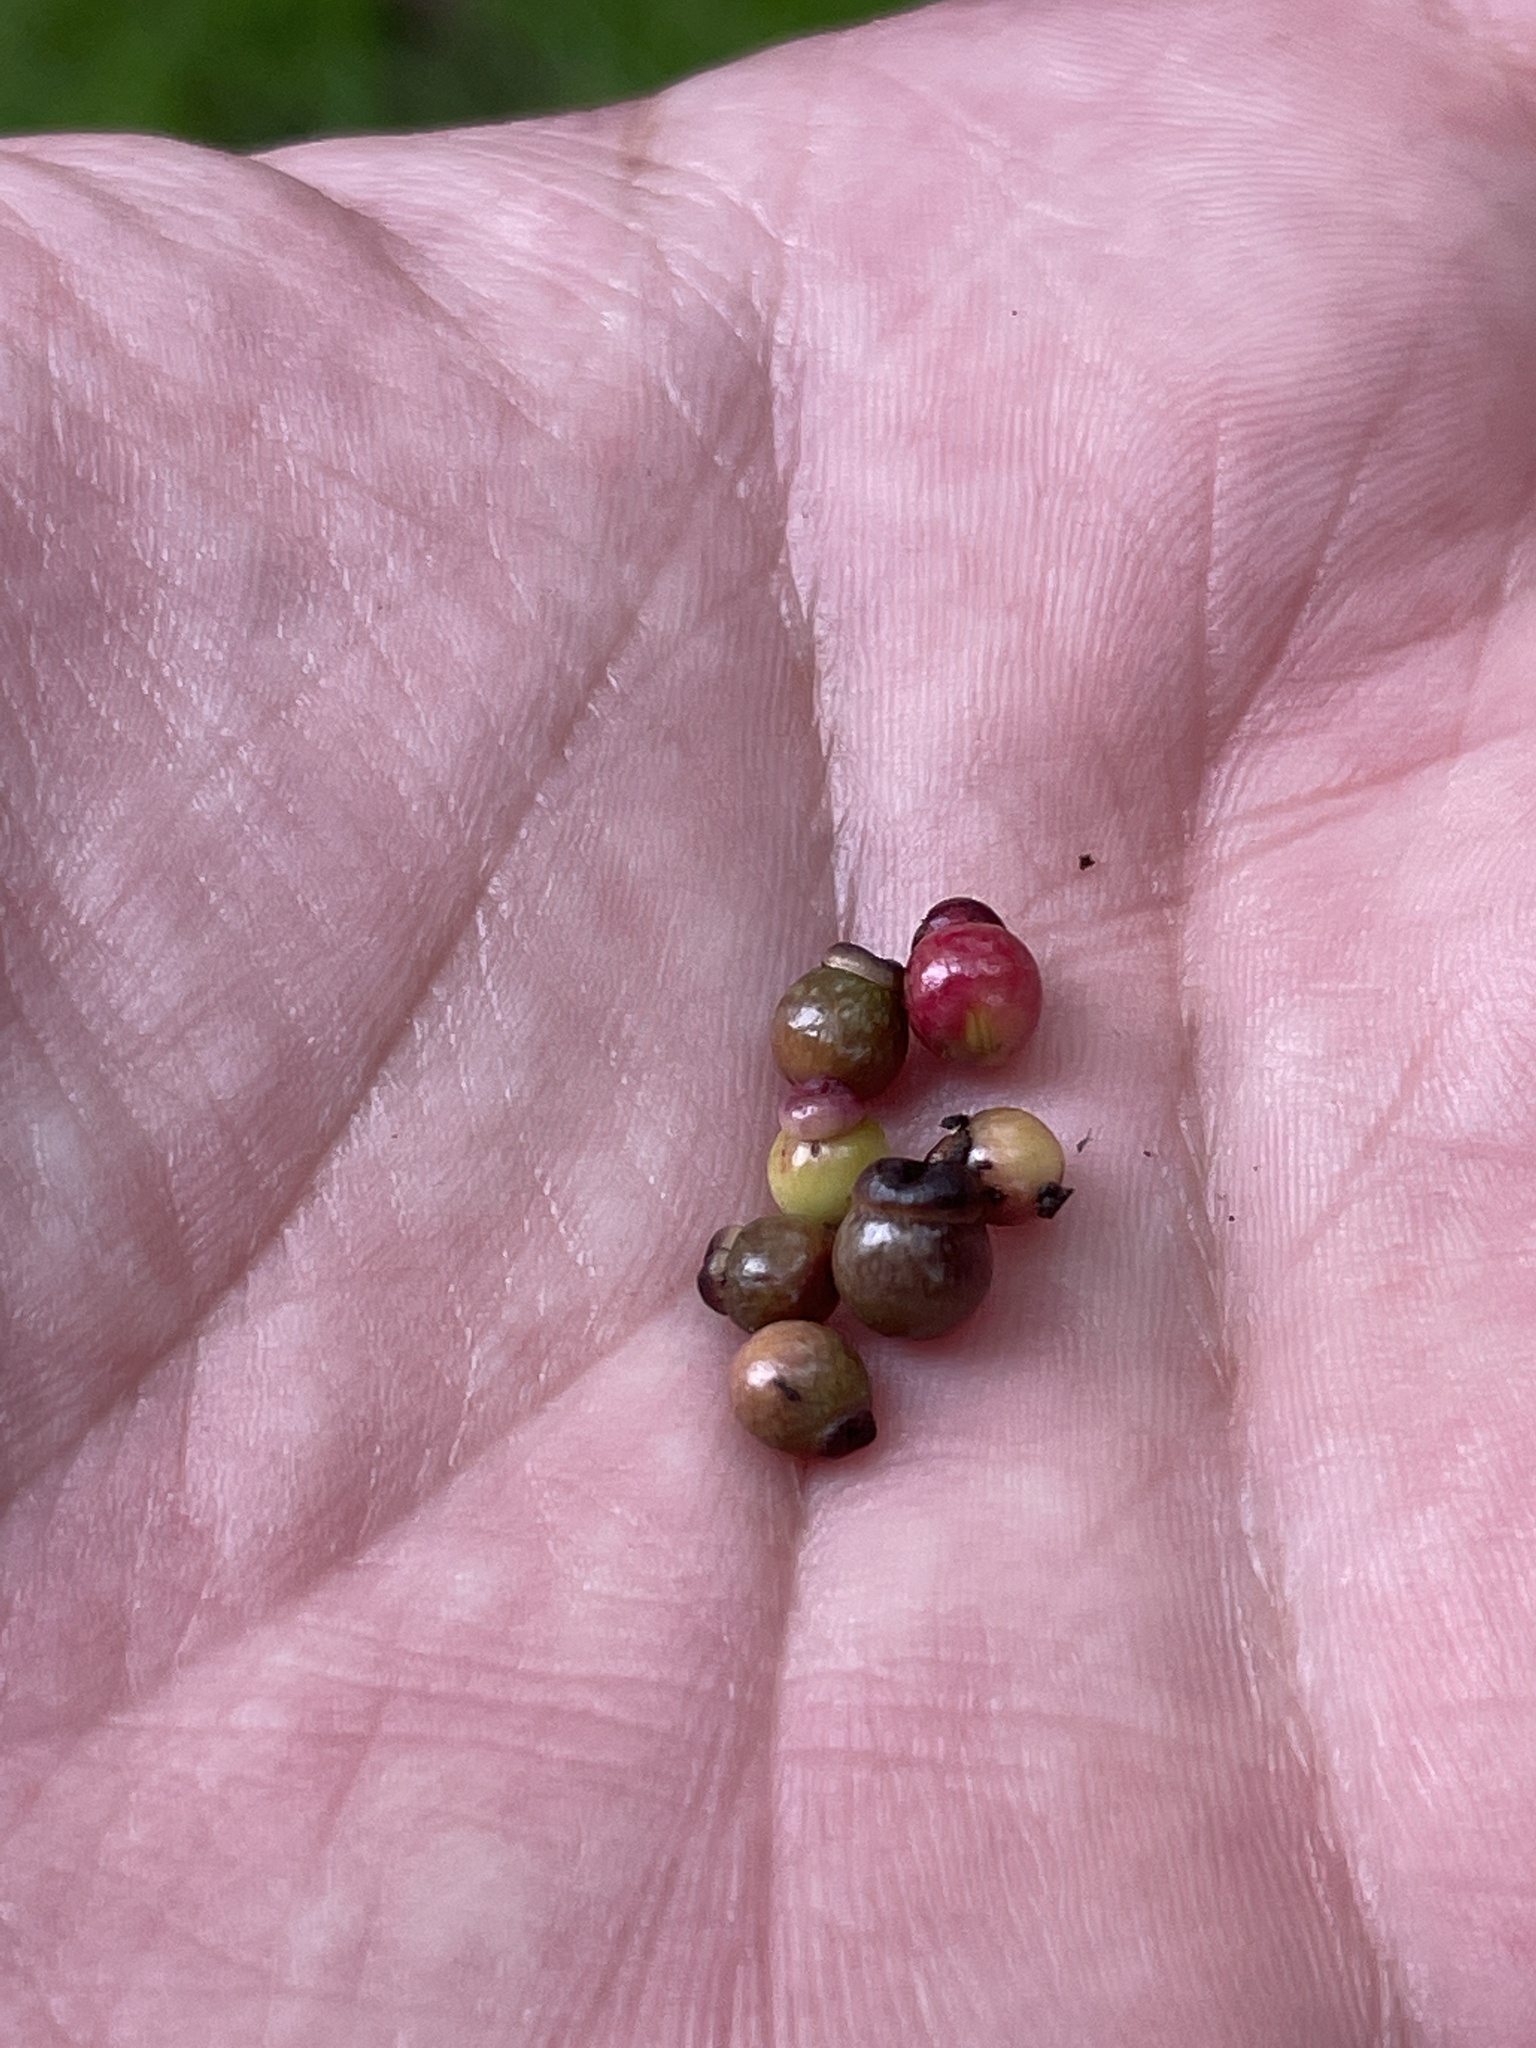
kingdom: Animalia
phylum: Arthropoda
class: Insecta
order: Hymenoptera
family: Cynipidae
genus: Kokkocynips
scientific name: Kokkocynips rileyi
